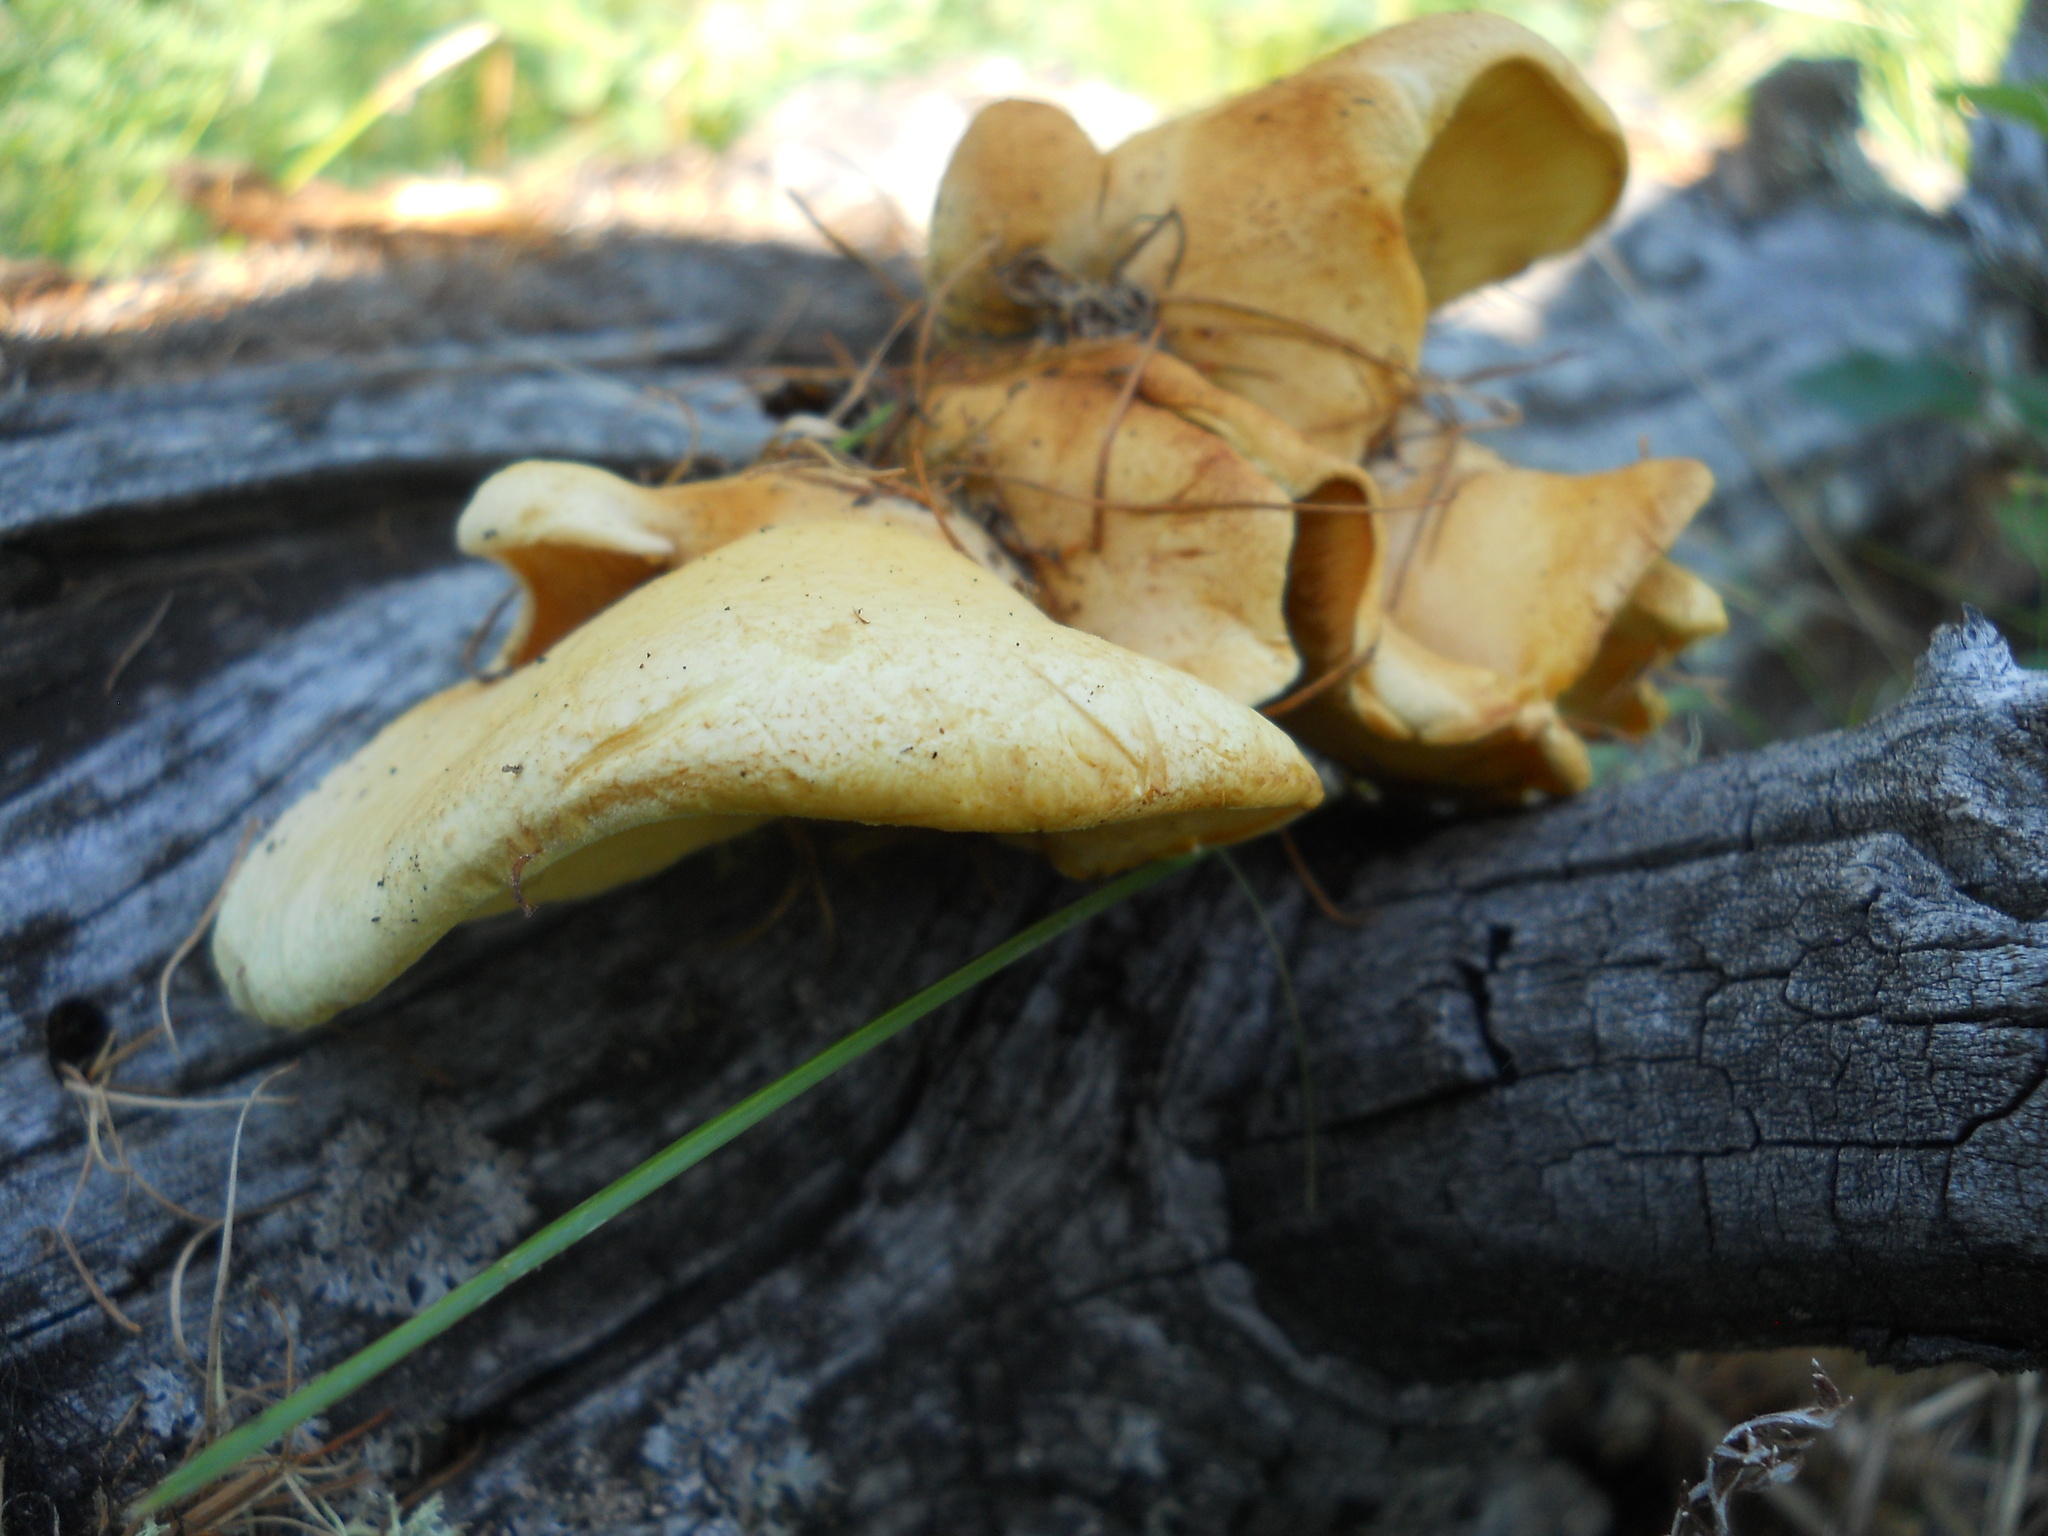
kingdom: Fungi
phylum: Basidiomycota
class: Agaricomycetes
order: Agaricales
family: Phyllotopsidaceae
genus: Phyllotopsis
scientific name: Phyllotopsis nidulans
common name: Orange mock oyster
